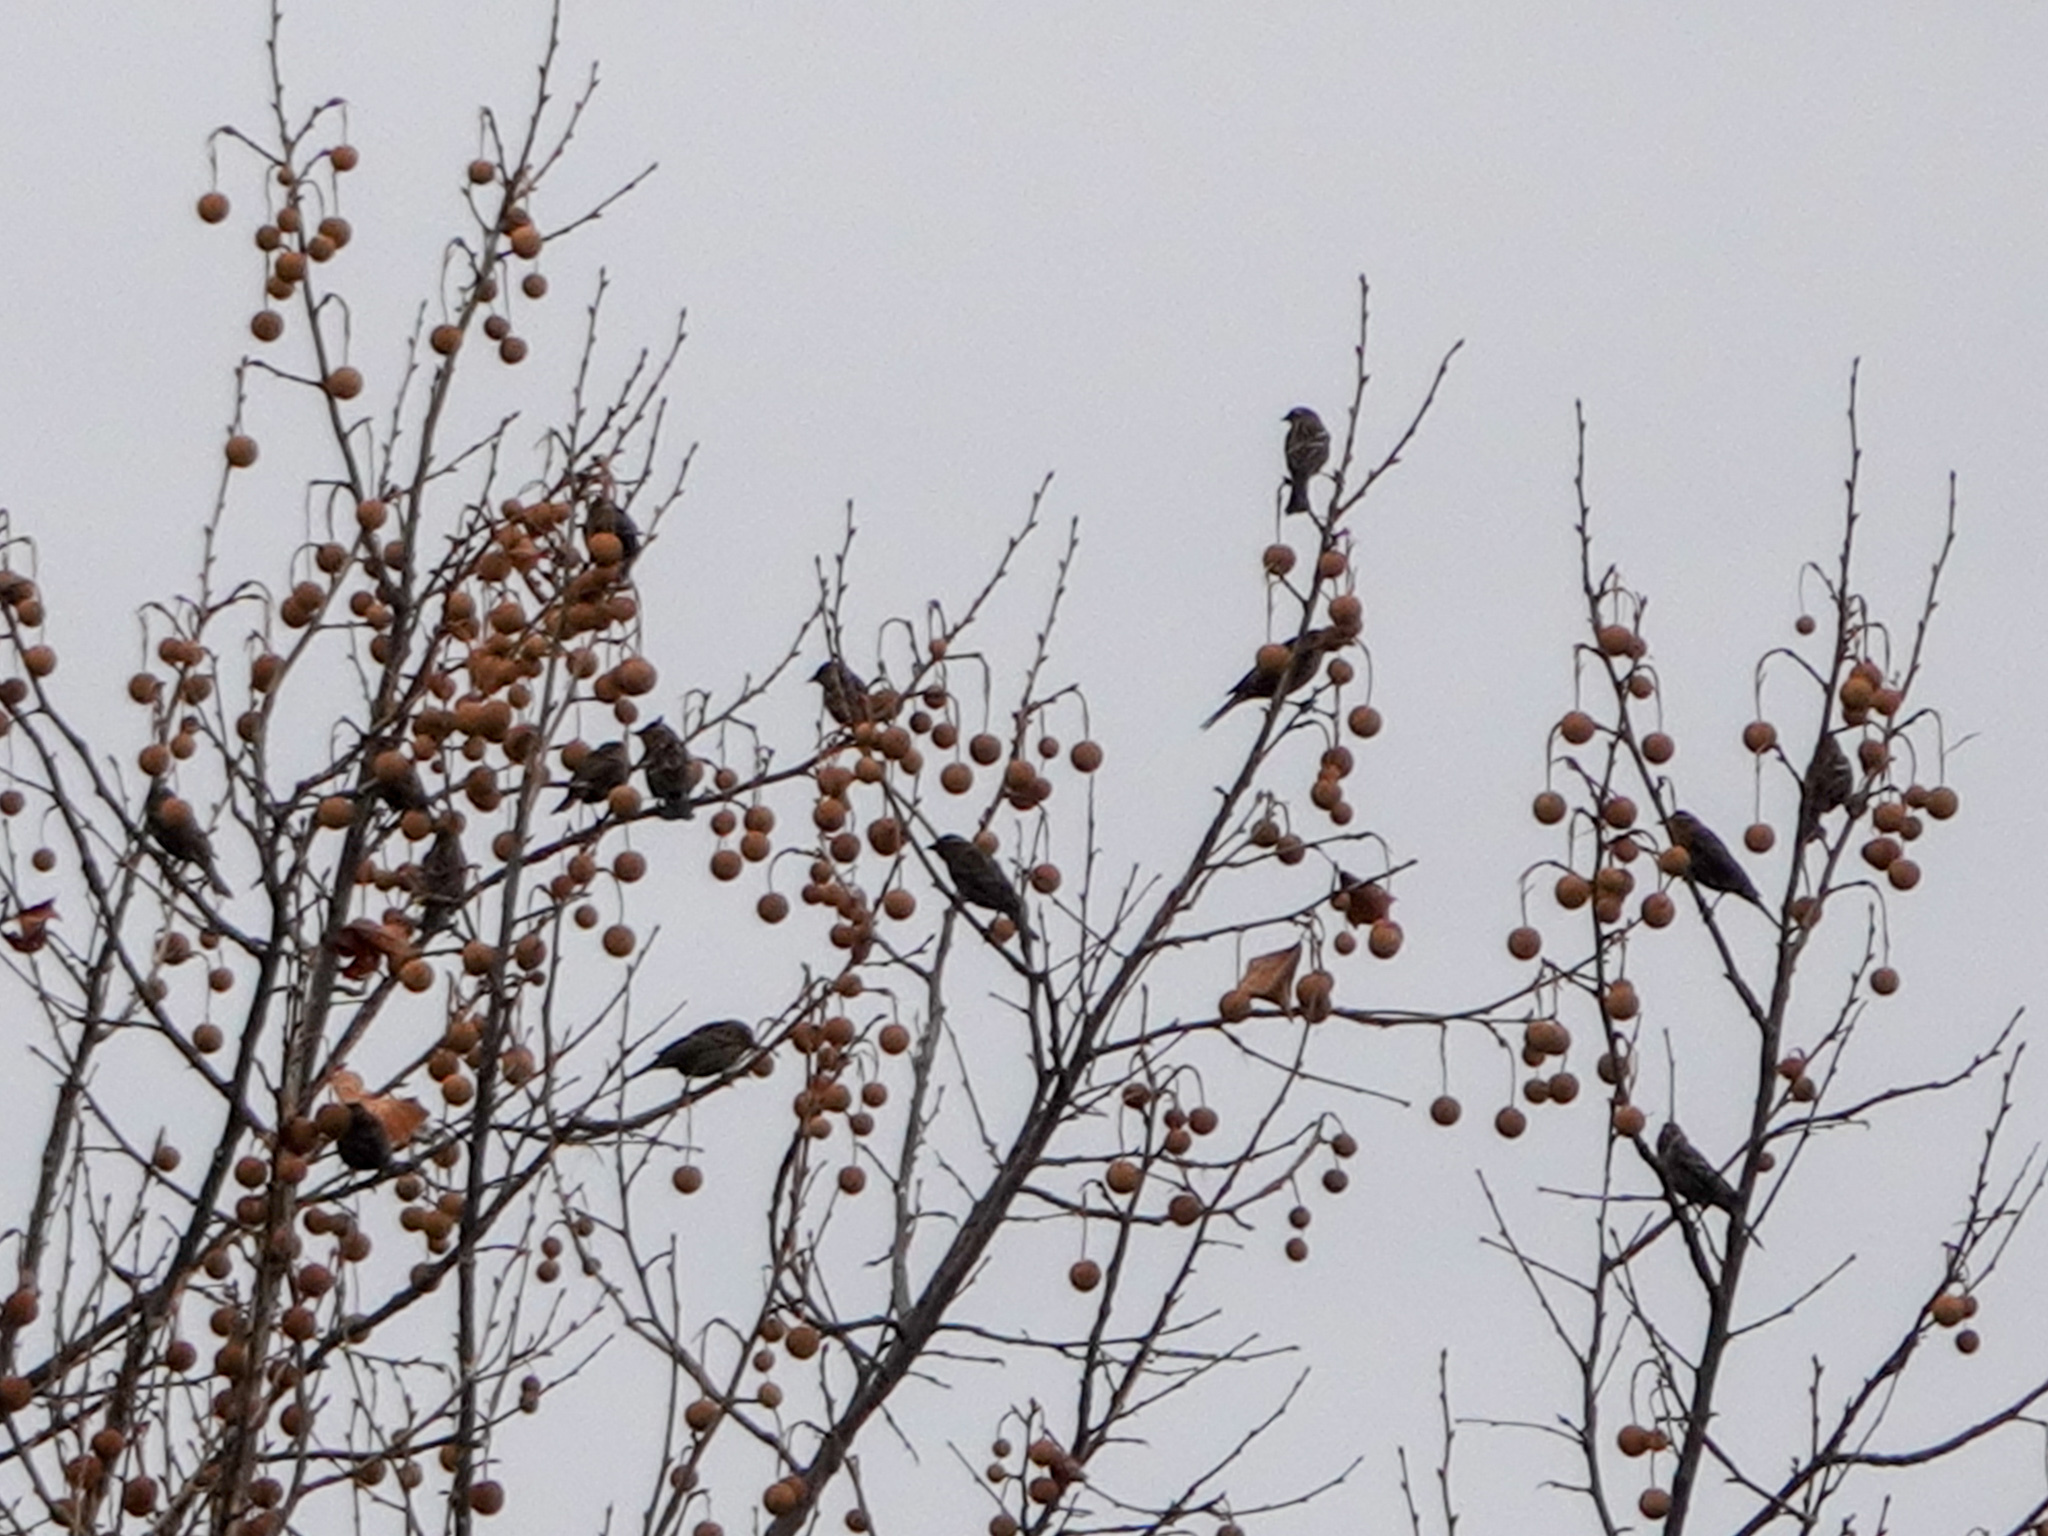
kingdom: Animalia
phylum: Chordata
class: Aves
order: Passeriformes
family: Icteridae
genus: Agelaius
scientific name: Agelaius phoeniceus
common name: Red-winged blackbird
